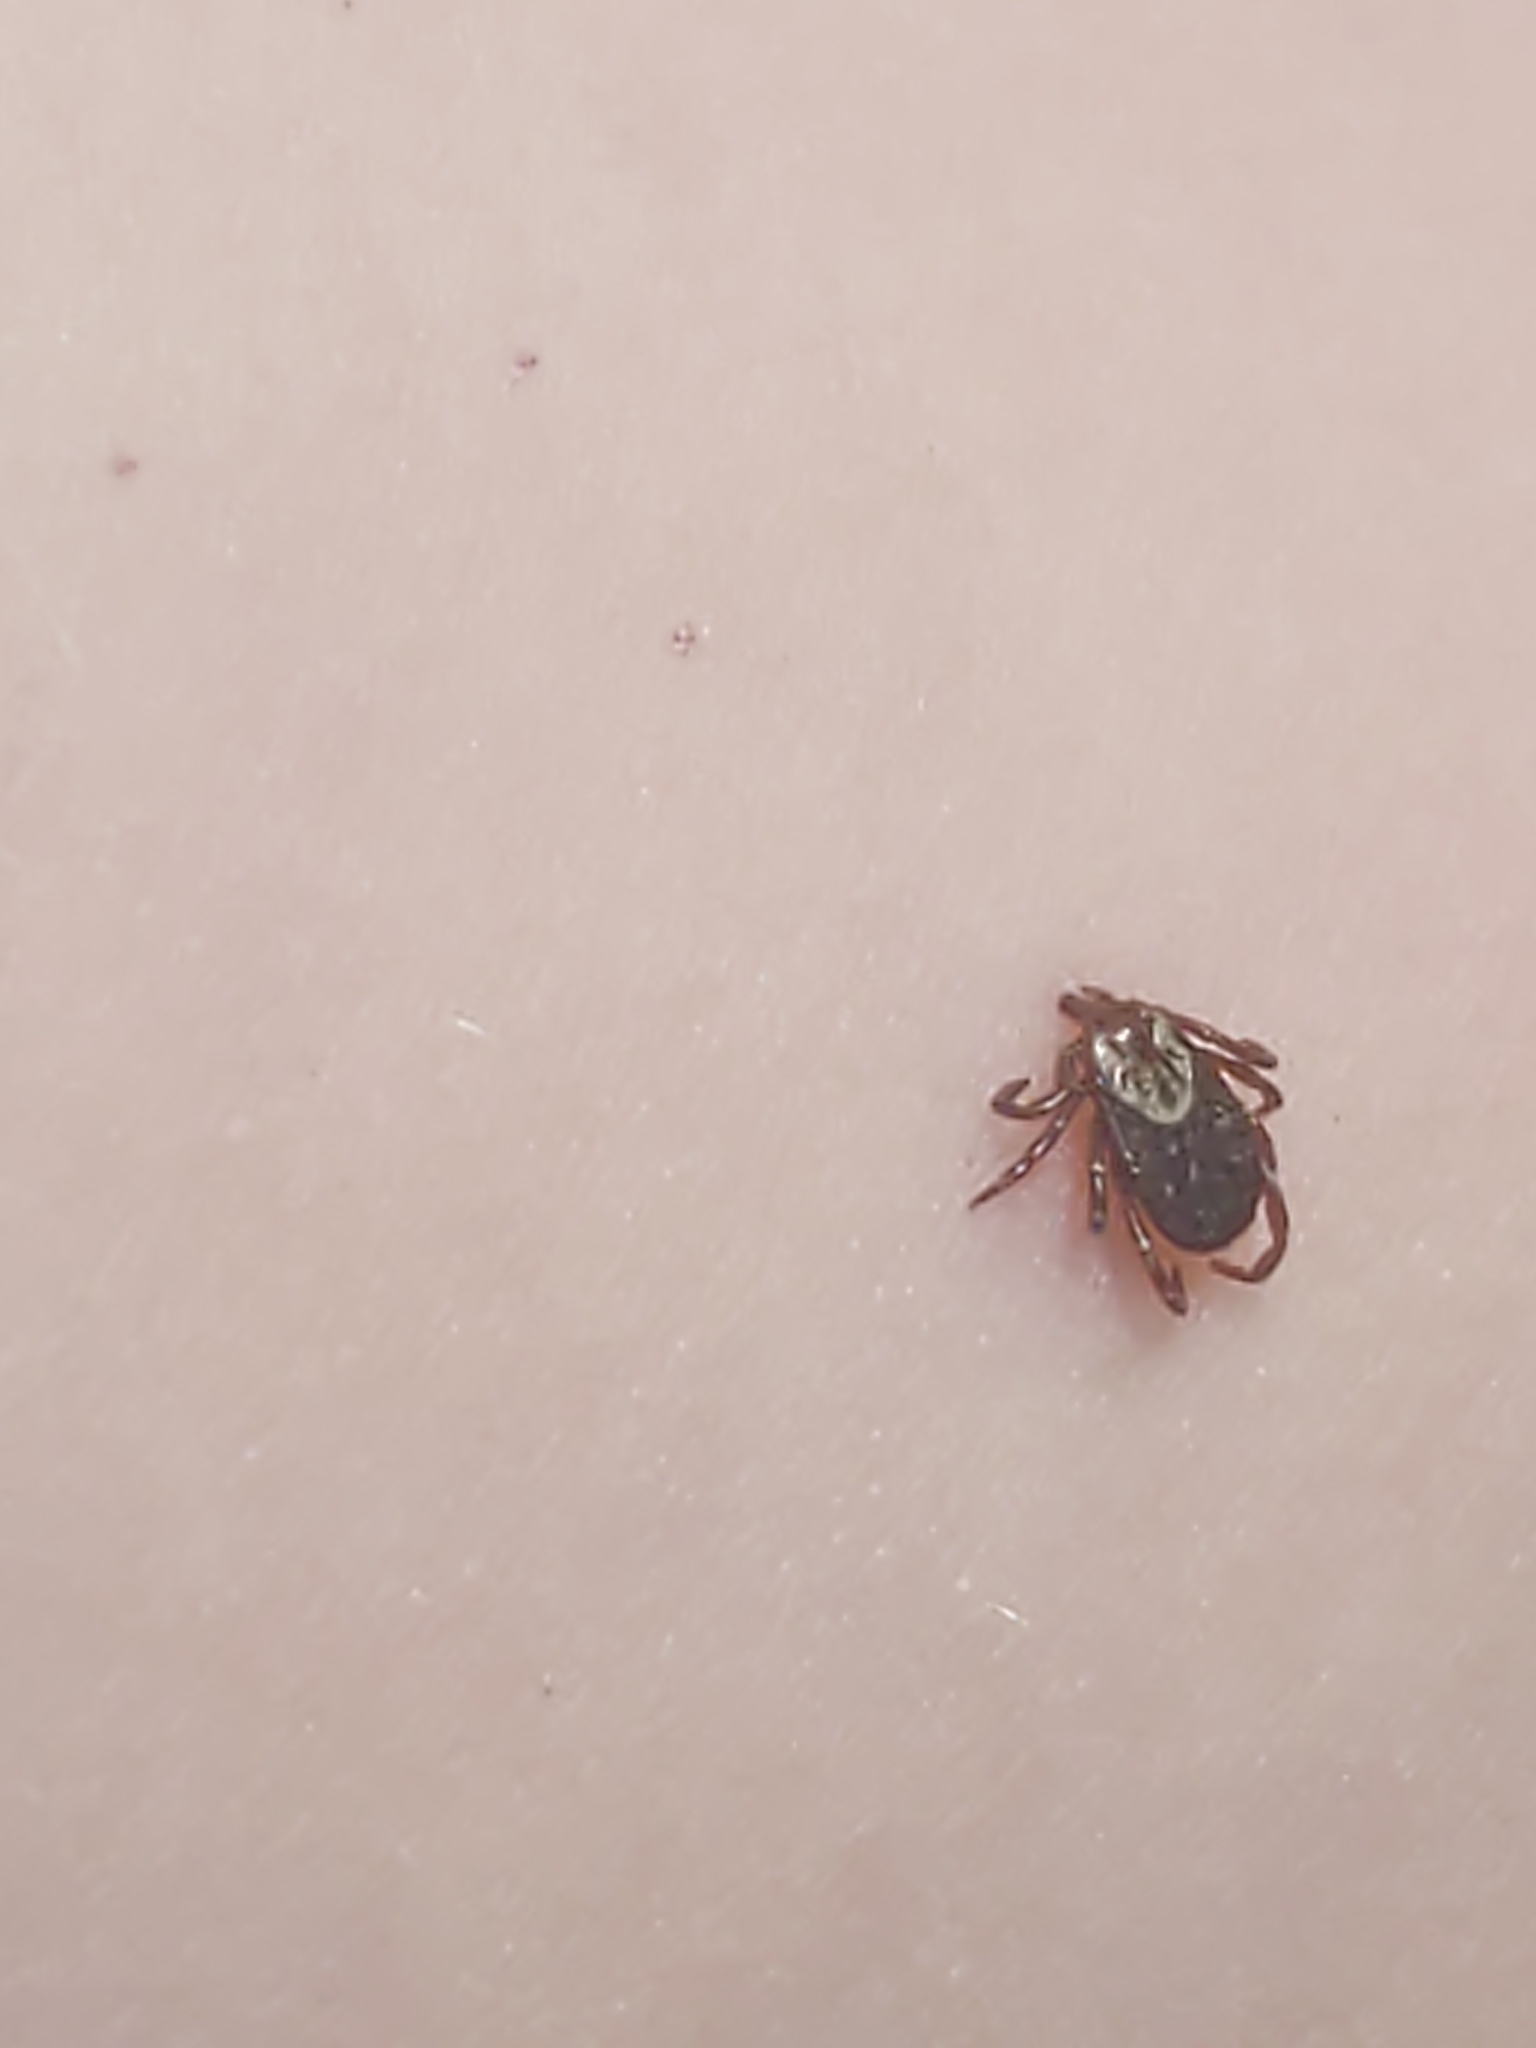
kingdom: Animalia
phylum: Arthropoda
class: Arachnida
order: Ixodida
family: Ixodidae
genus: Dermacentor
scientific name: Dermacentor variabilis
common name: American dog tick
